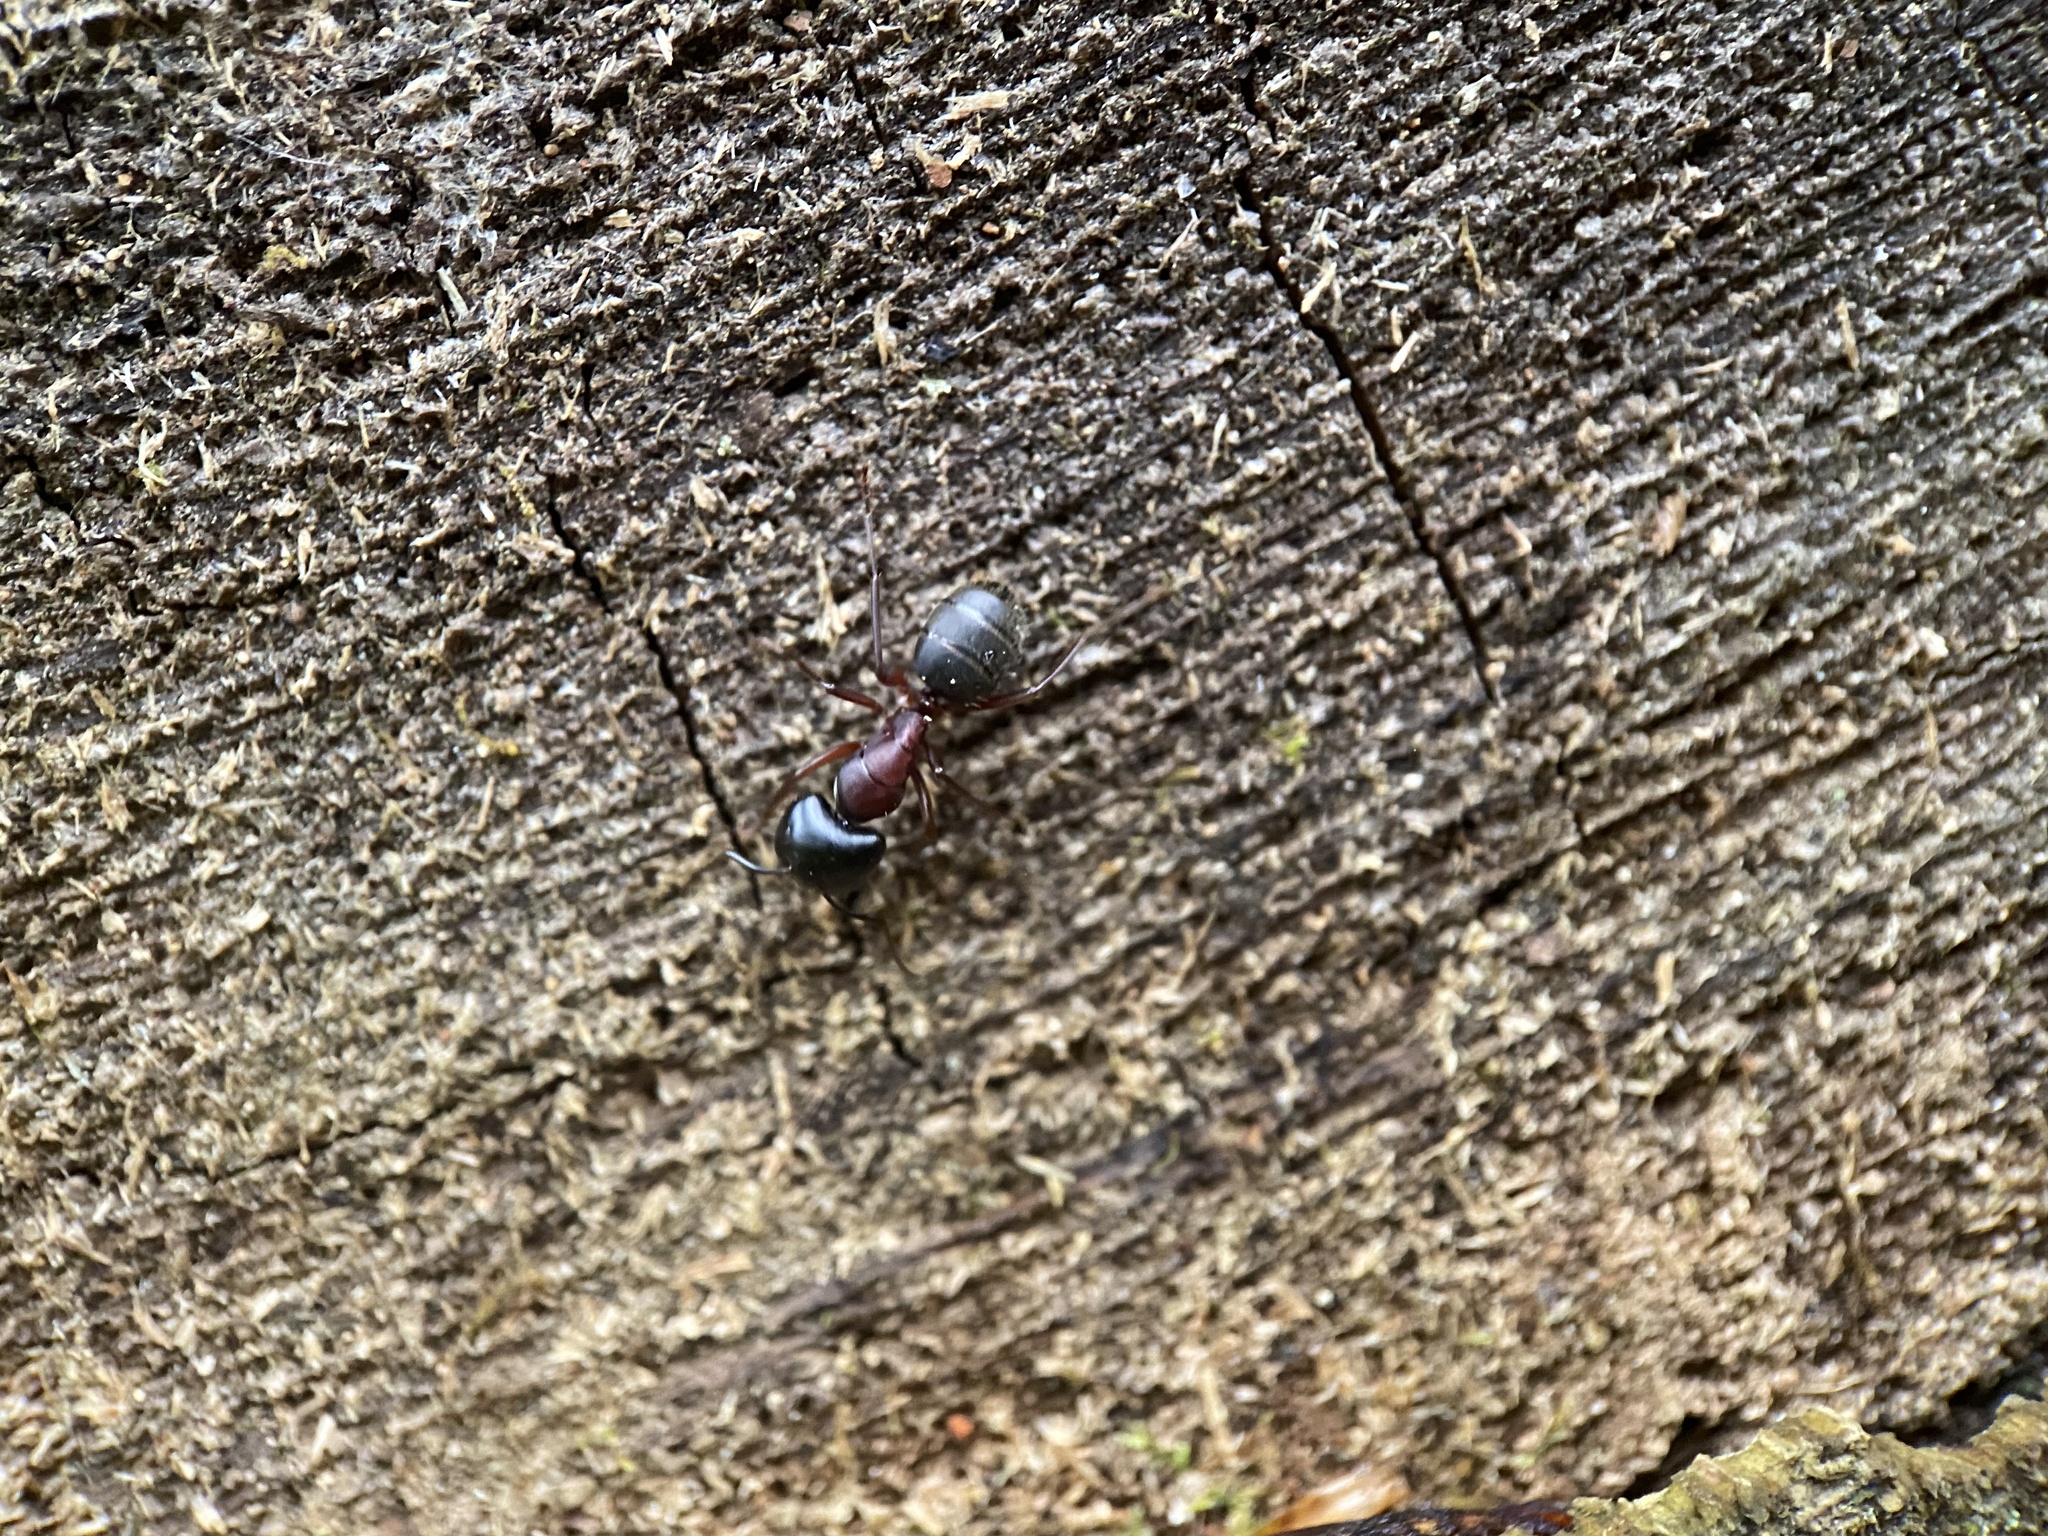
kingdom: Animalia
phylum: Arthropoda
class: Insecta
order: Hymenoptera
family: Formicidae
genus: Camponotus
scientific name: Camponotus herculeanus
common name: Hercules ant
